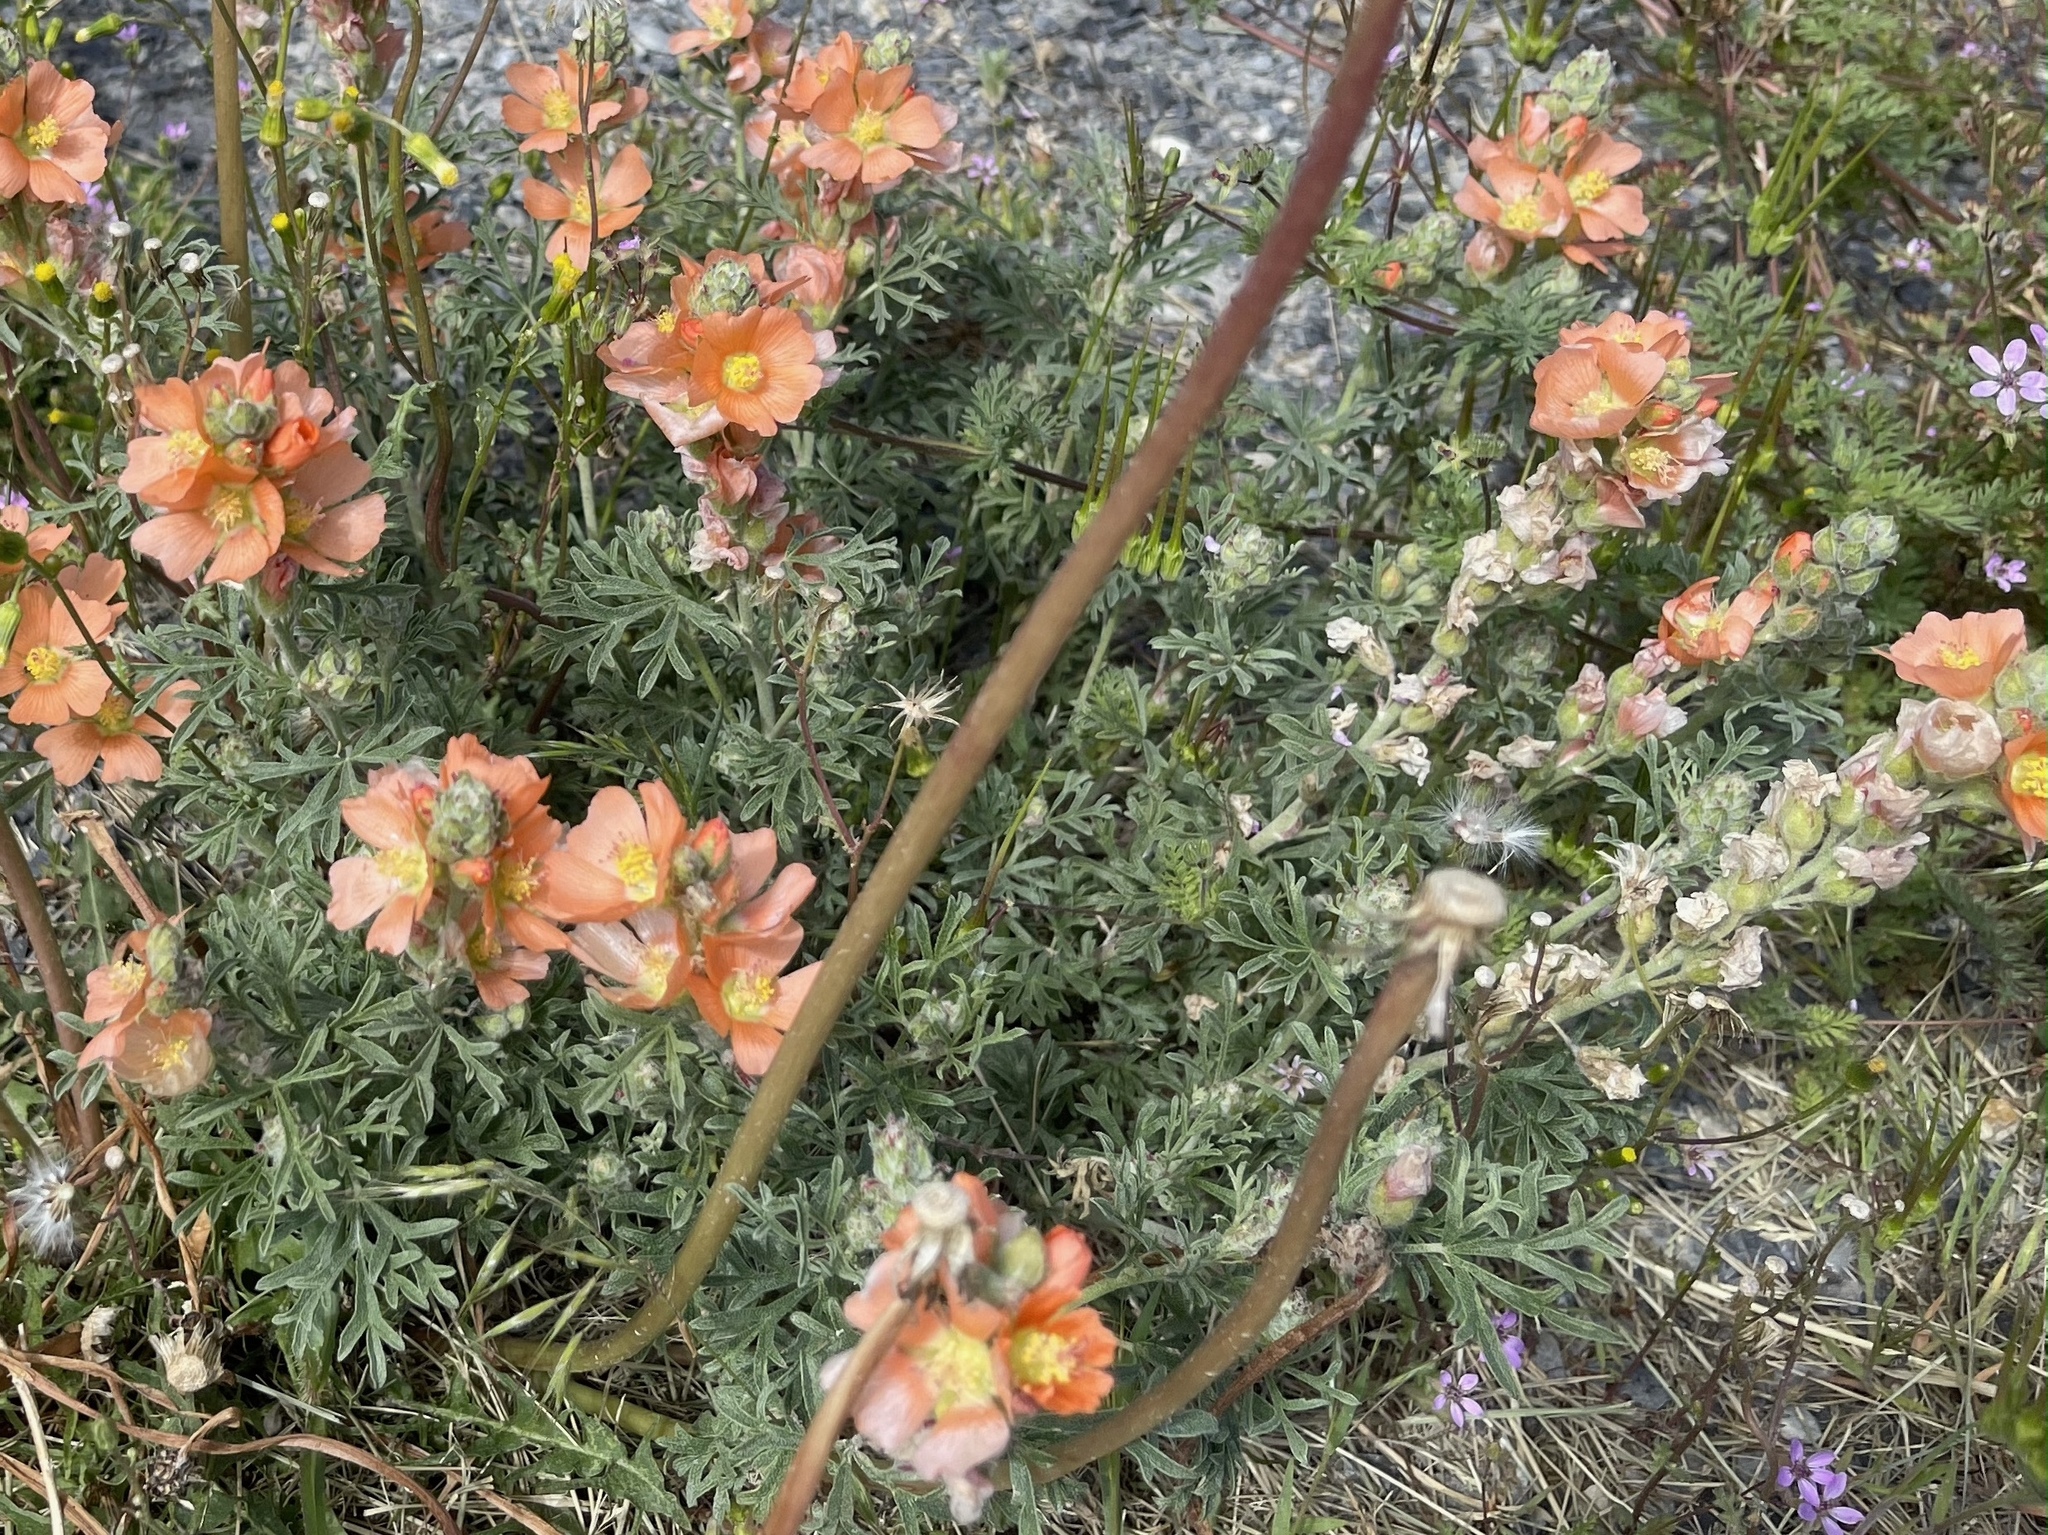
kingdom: Plantae
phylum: Tracheophyta
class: Magnoliopsida
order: Malvales
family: Malvaceae
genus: Sphaeralcea
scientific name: Sphaeralcea coccinea
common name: Moss-rose
